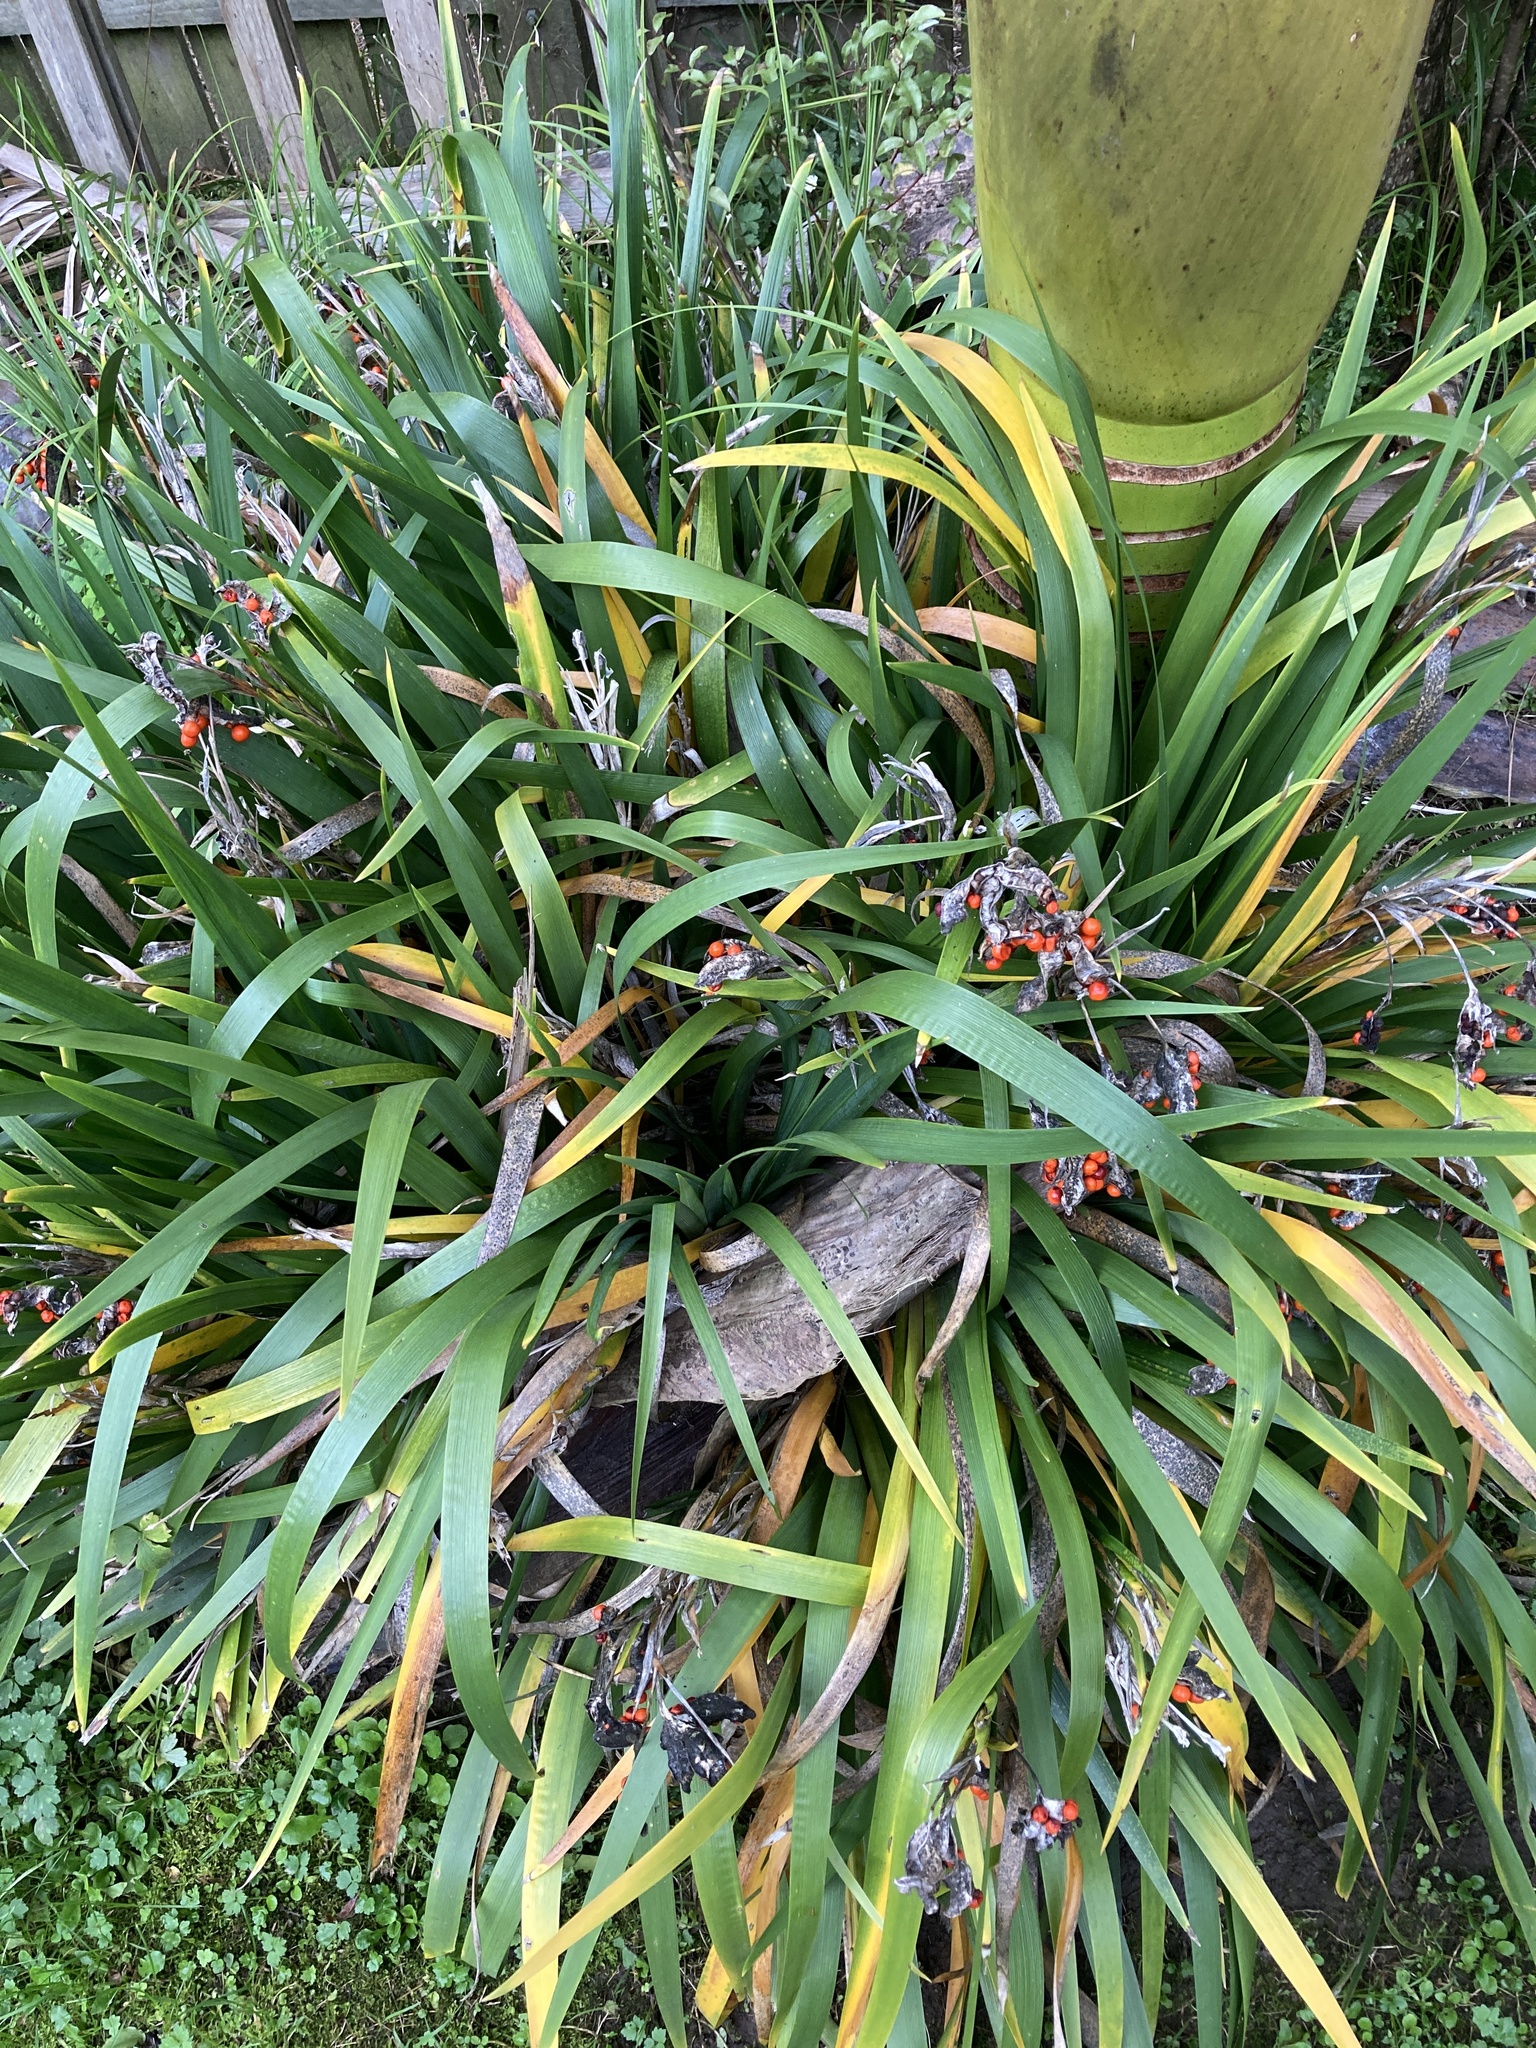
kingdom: Plantae
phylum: Tracheophyta
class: Liliopsida
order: Asparagales
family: Iridaceae
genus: Iris
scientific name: Iris foetidissima
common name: Stinking iris
